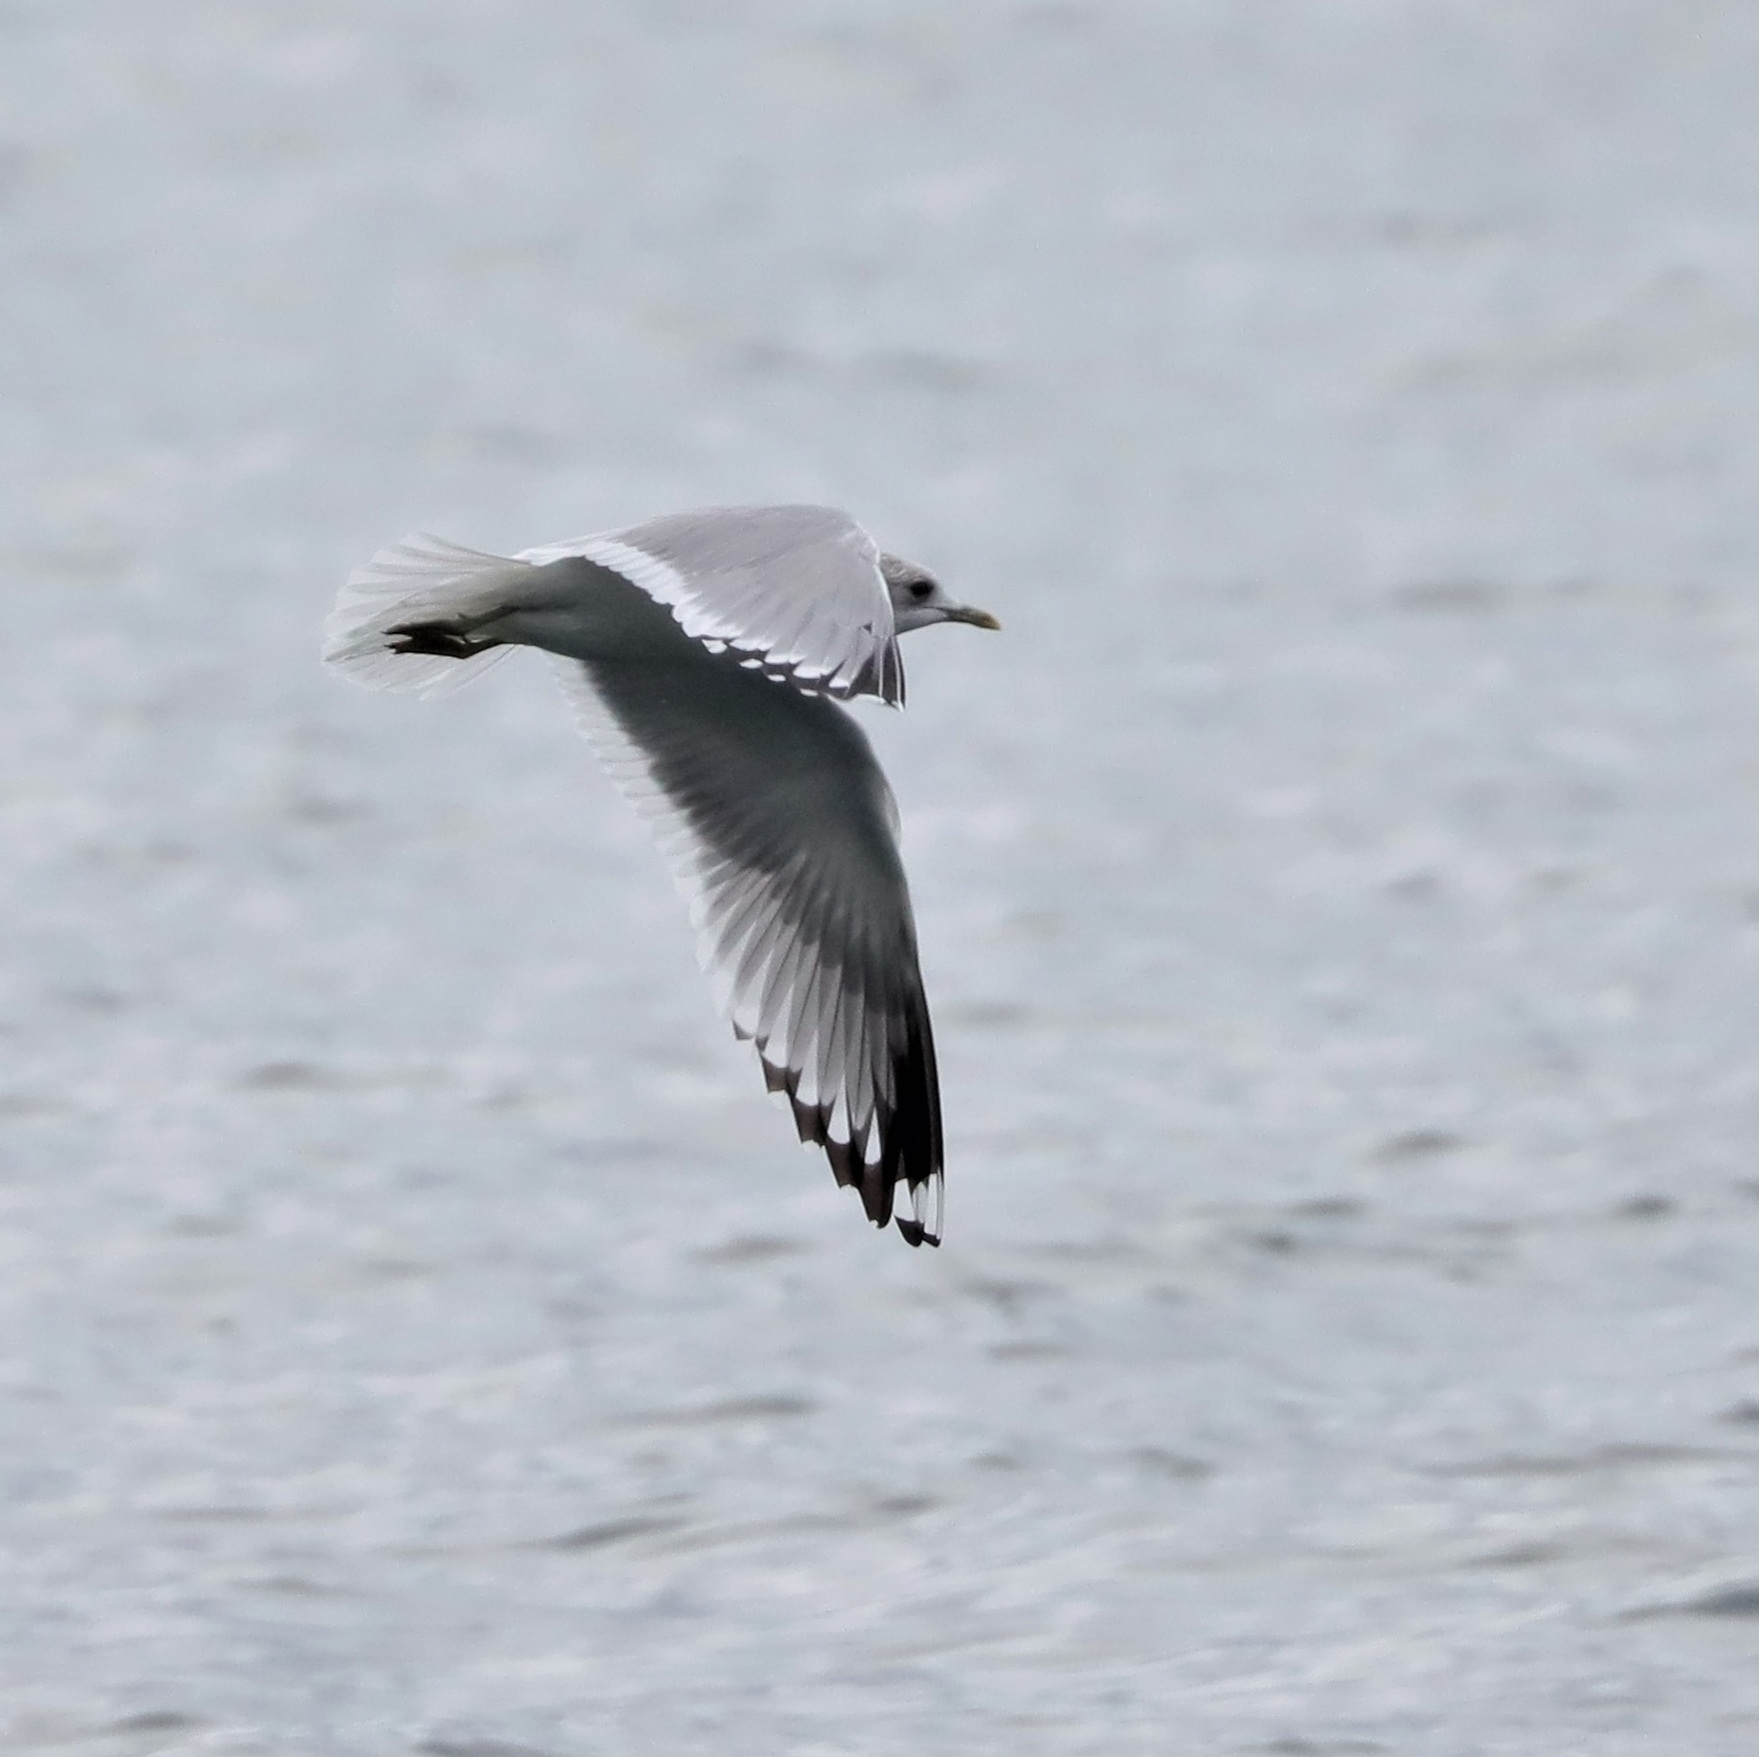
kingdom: Animalia
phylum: Chordata
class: Aves
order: Charadriiformes
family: Laridae
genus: Larus
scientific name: Larus brachyrhynchus
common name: Short-billed gull
